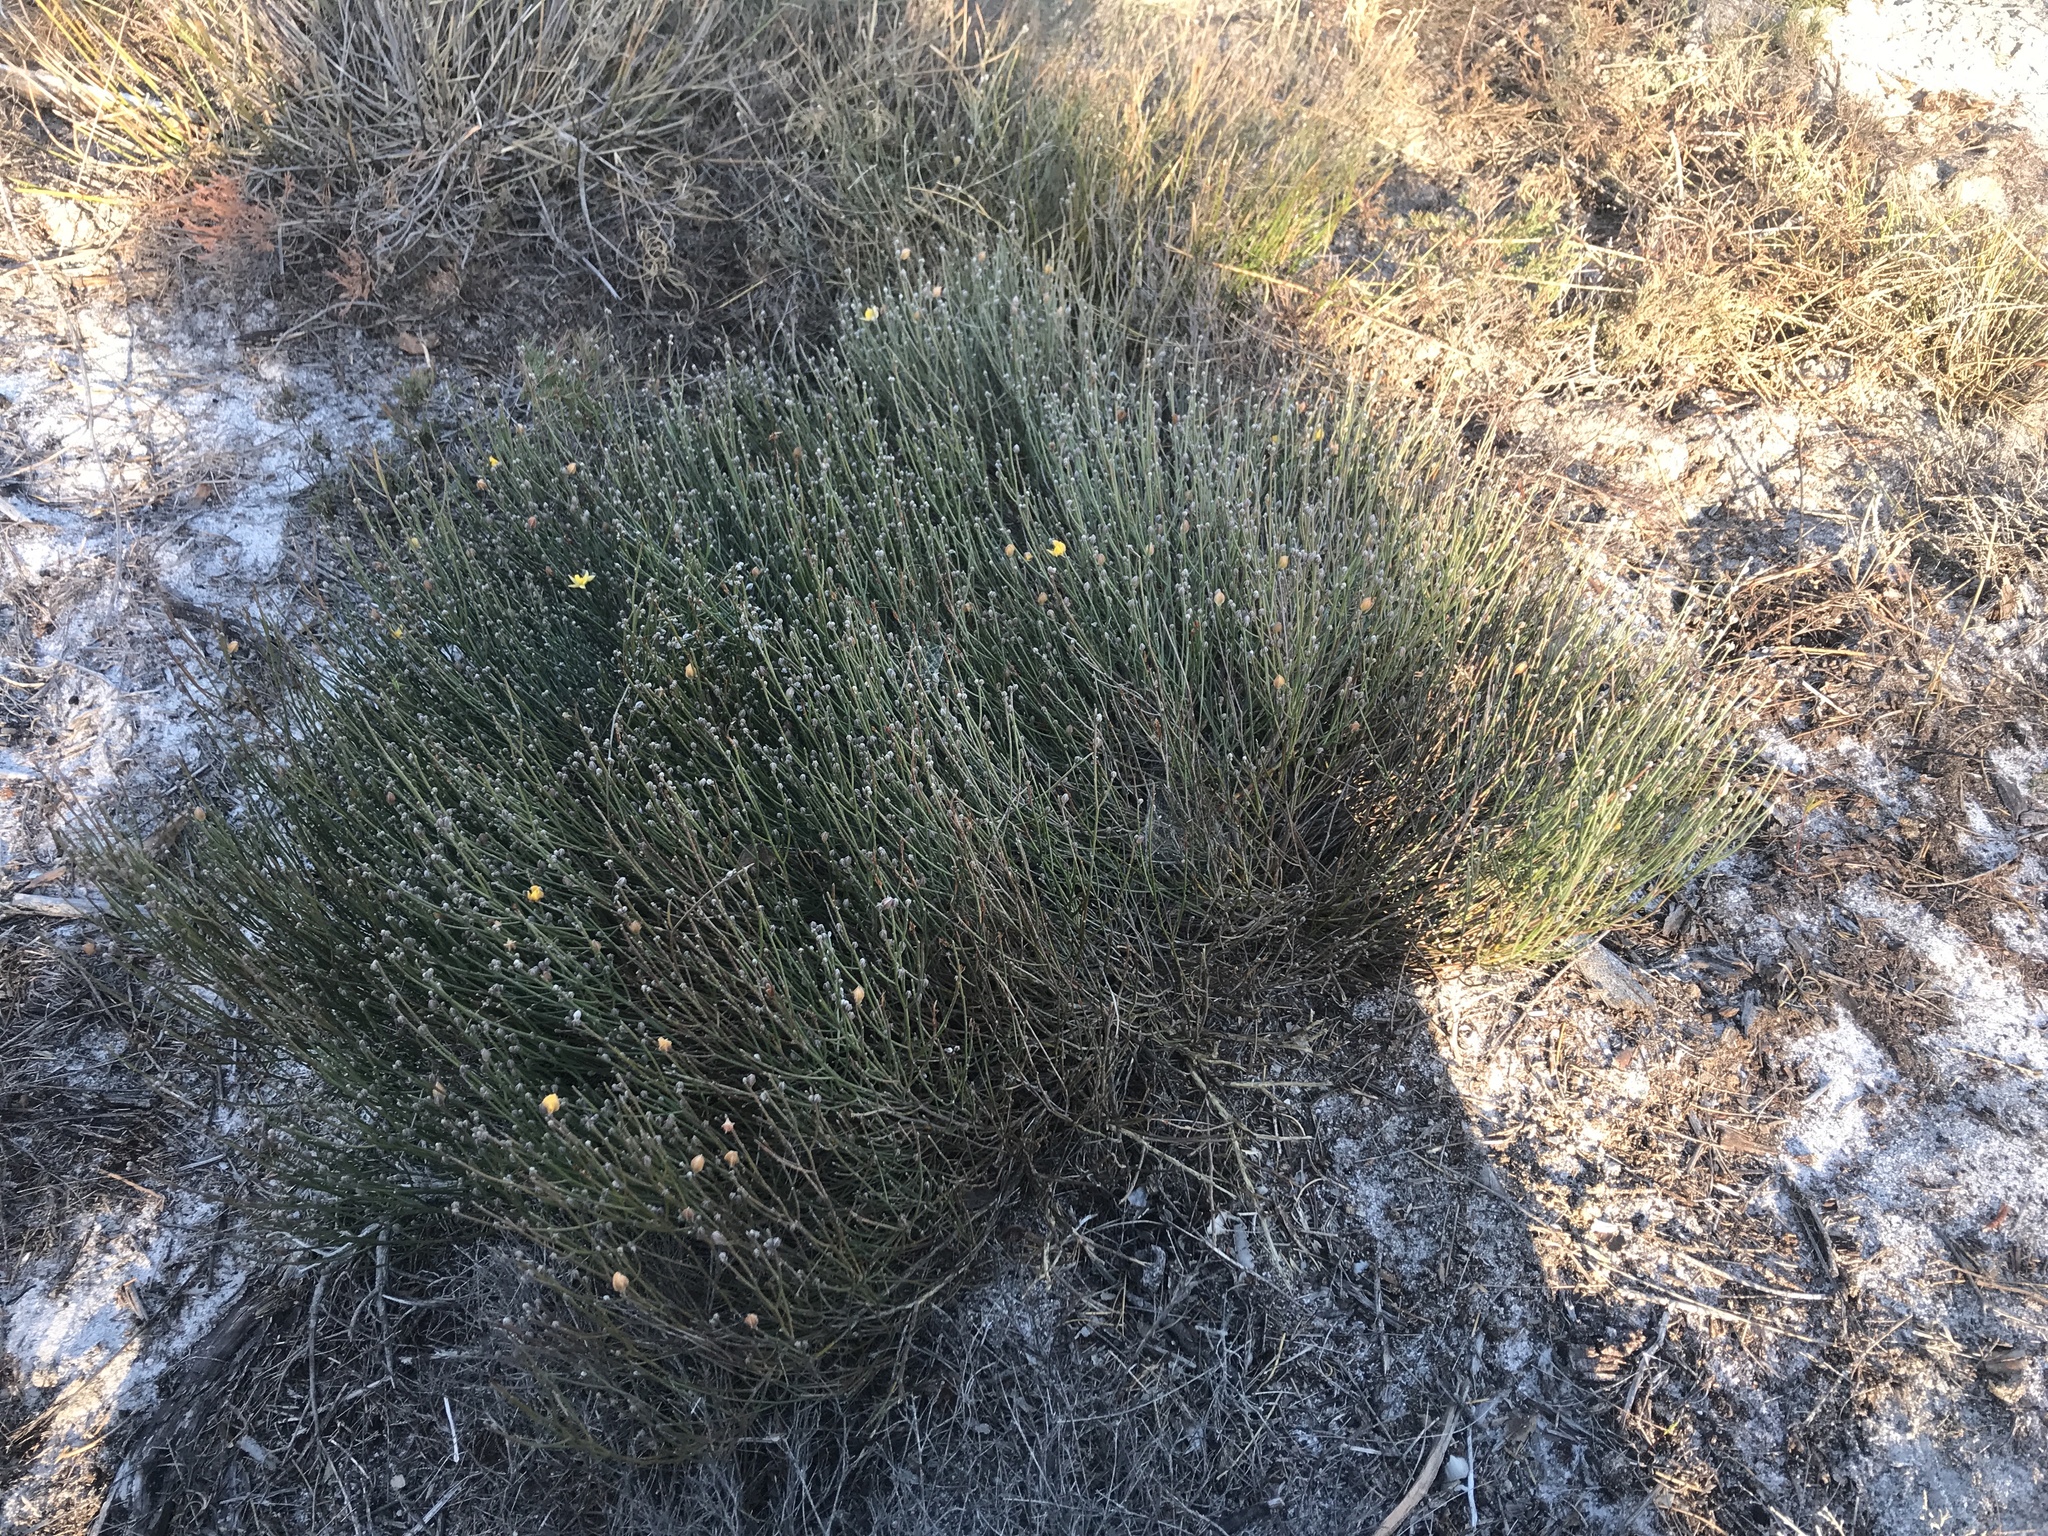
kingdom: Plantae
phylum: Tracheophyta
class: Magnoliopsida
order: Fabales
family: Fabaceae
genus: Jacksonia
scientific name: Jacksonia stackhousei
